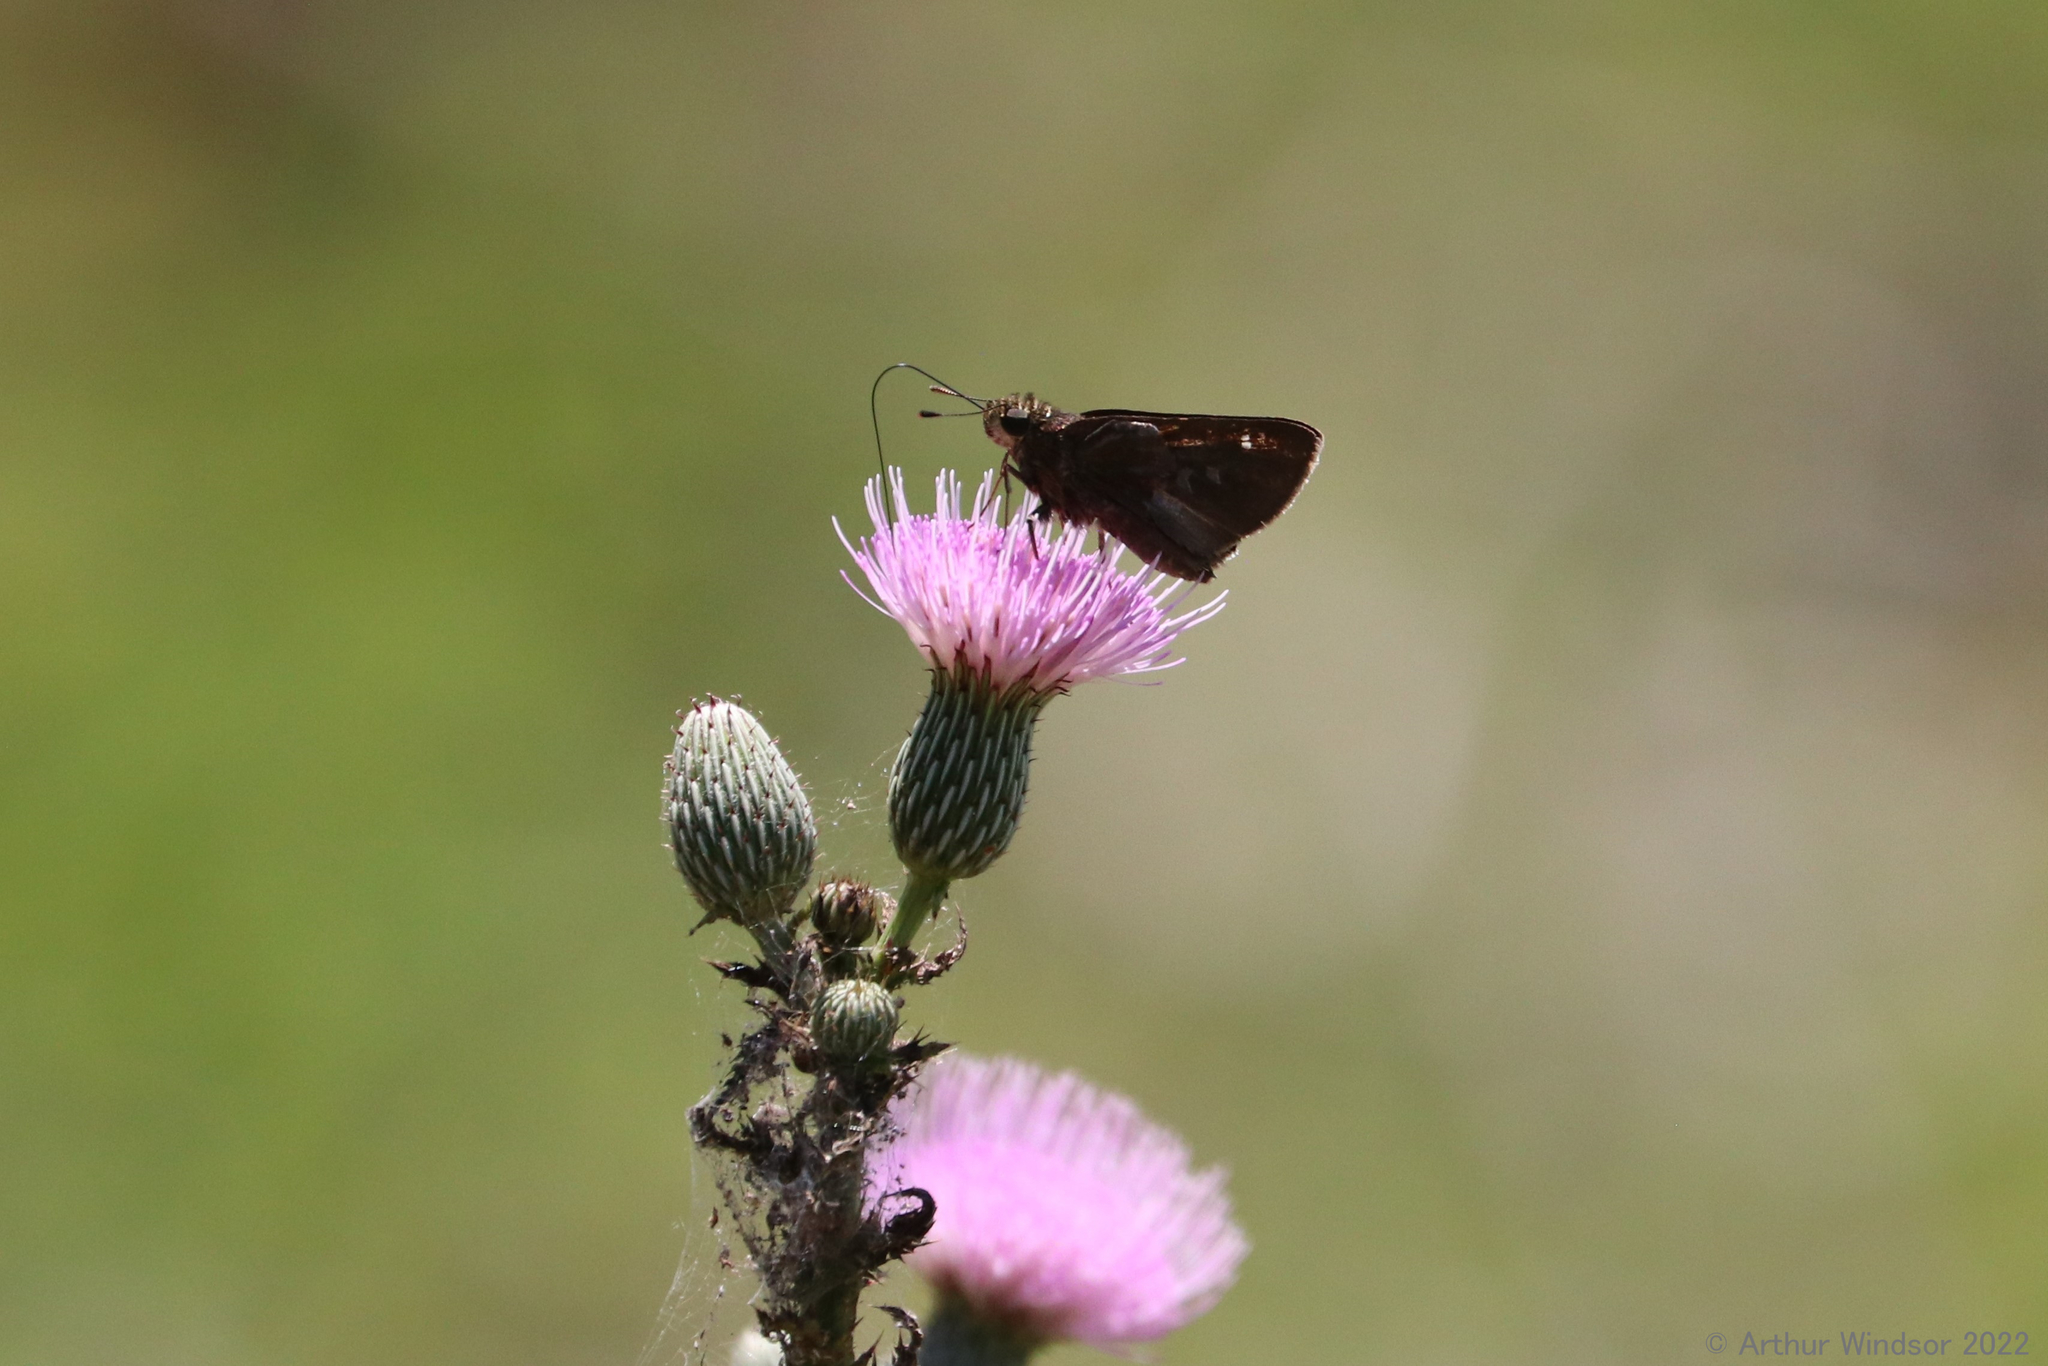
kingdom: Animalia
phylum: Arthropoda
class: Insecta
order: Lepidoptera
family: Hesperiidae
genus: Oligoria
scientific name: Oligoria maculata
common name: Twin-spot skipper
